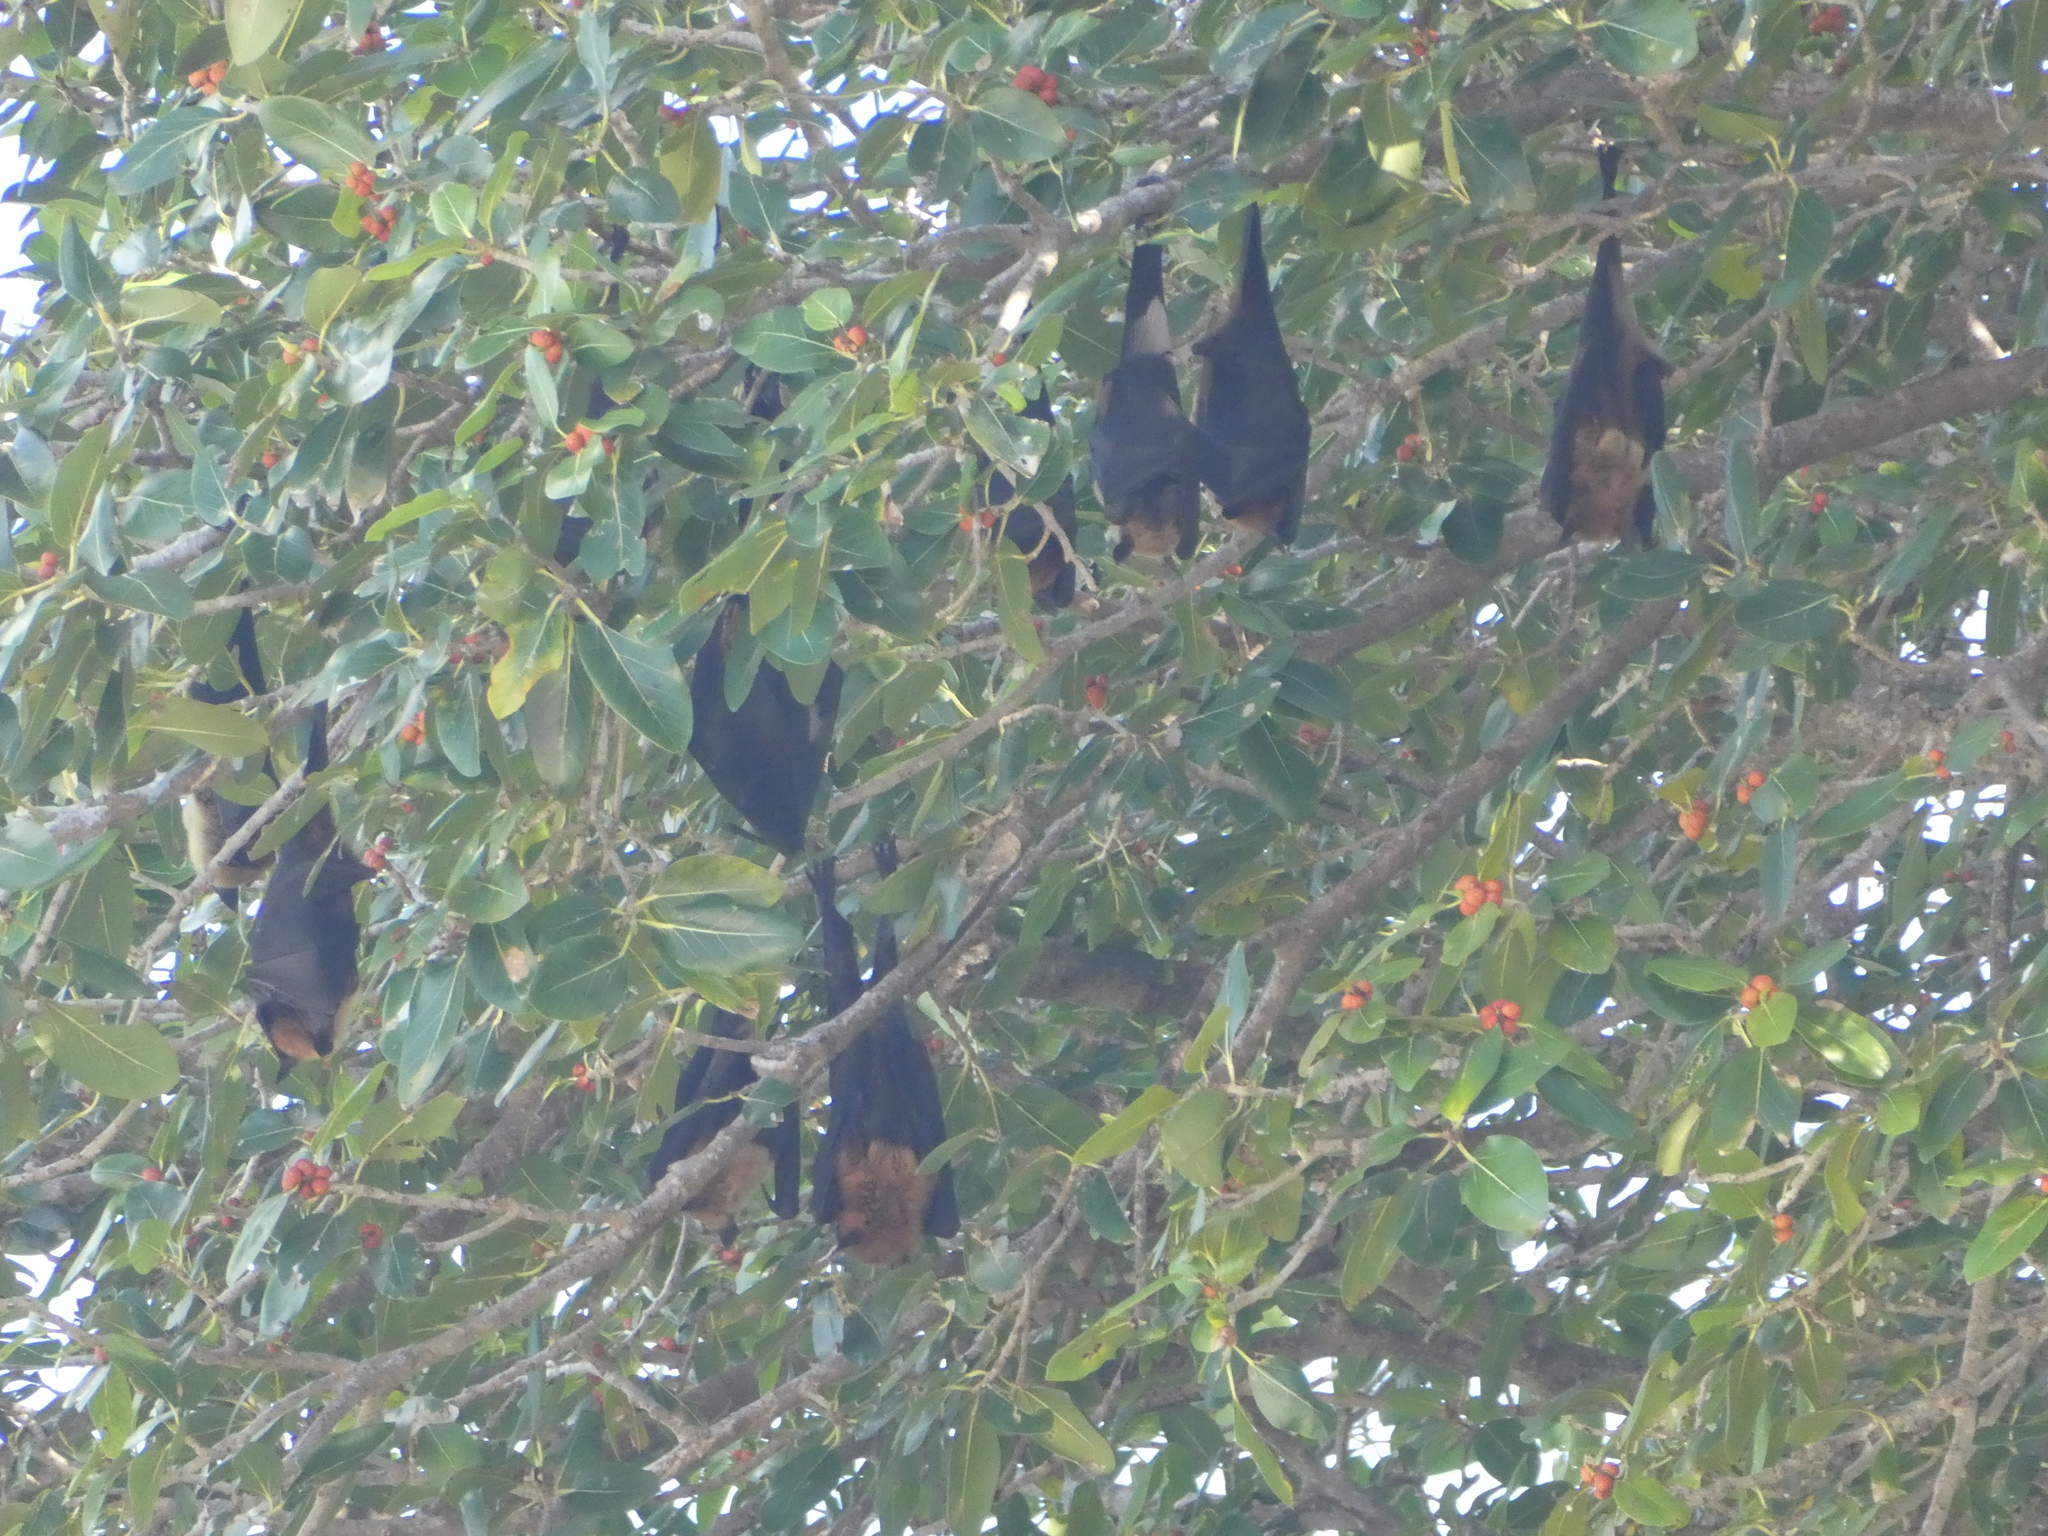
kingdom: Animalia
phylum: Chordata
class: Mammalia
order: Chiroptera
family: Pteropodidae
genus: Pteropus
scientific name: Pteropus medius
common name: Indian flying fox
